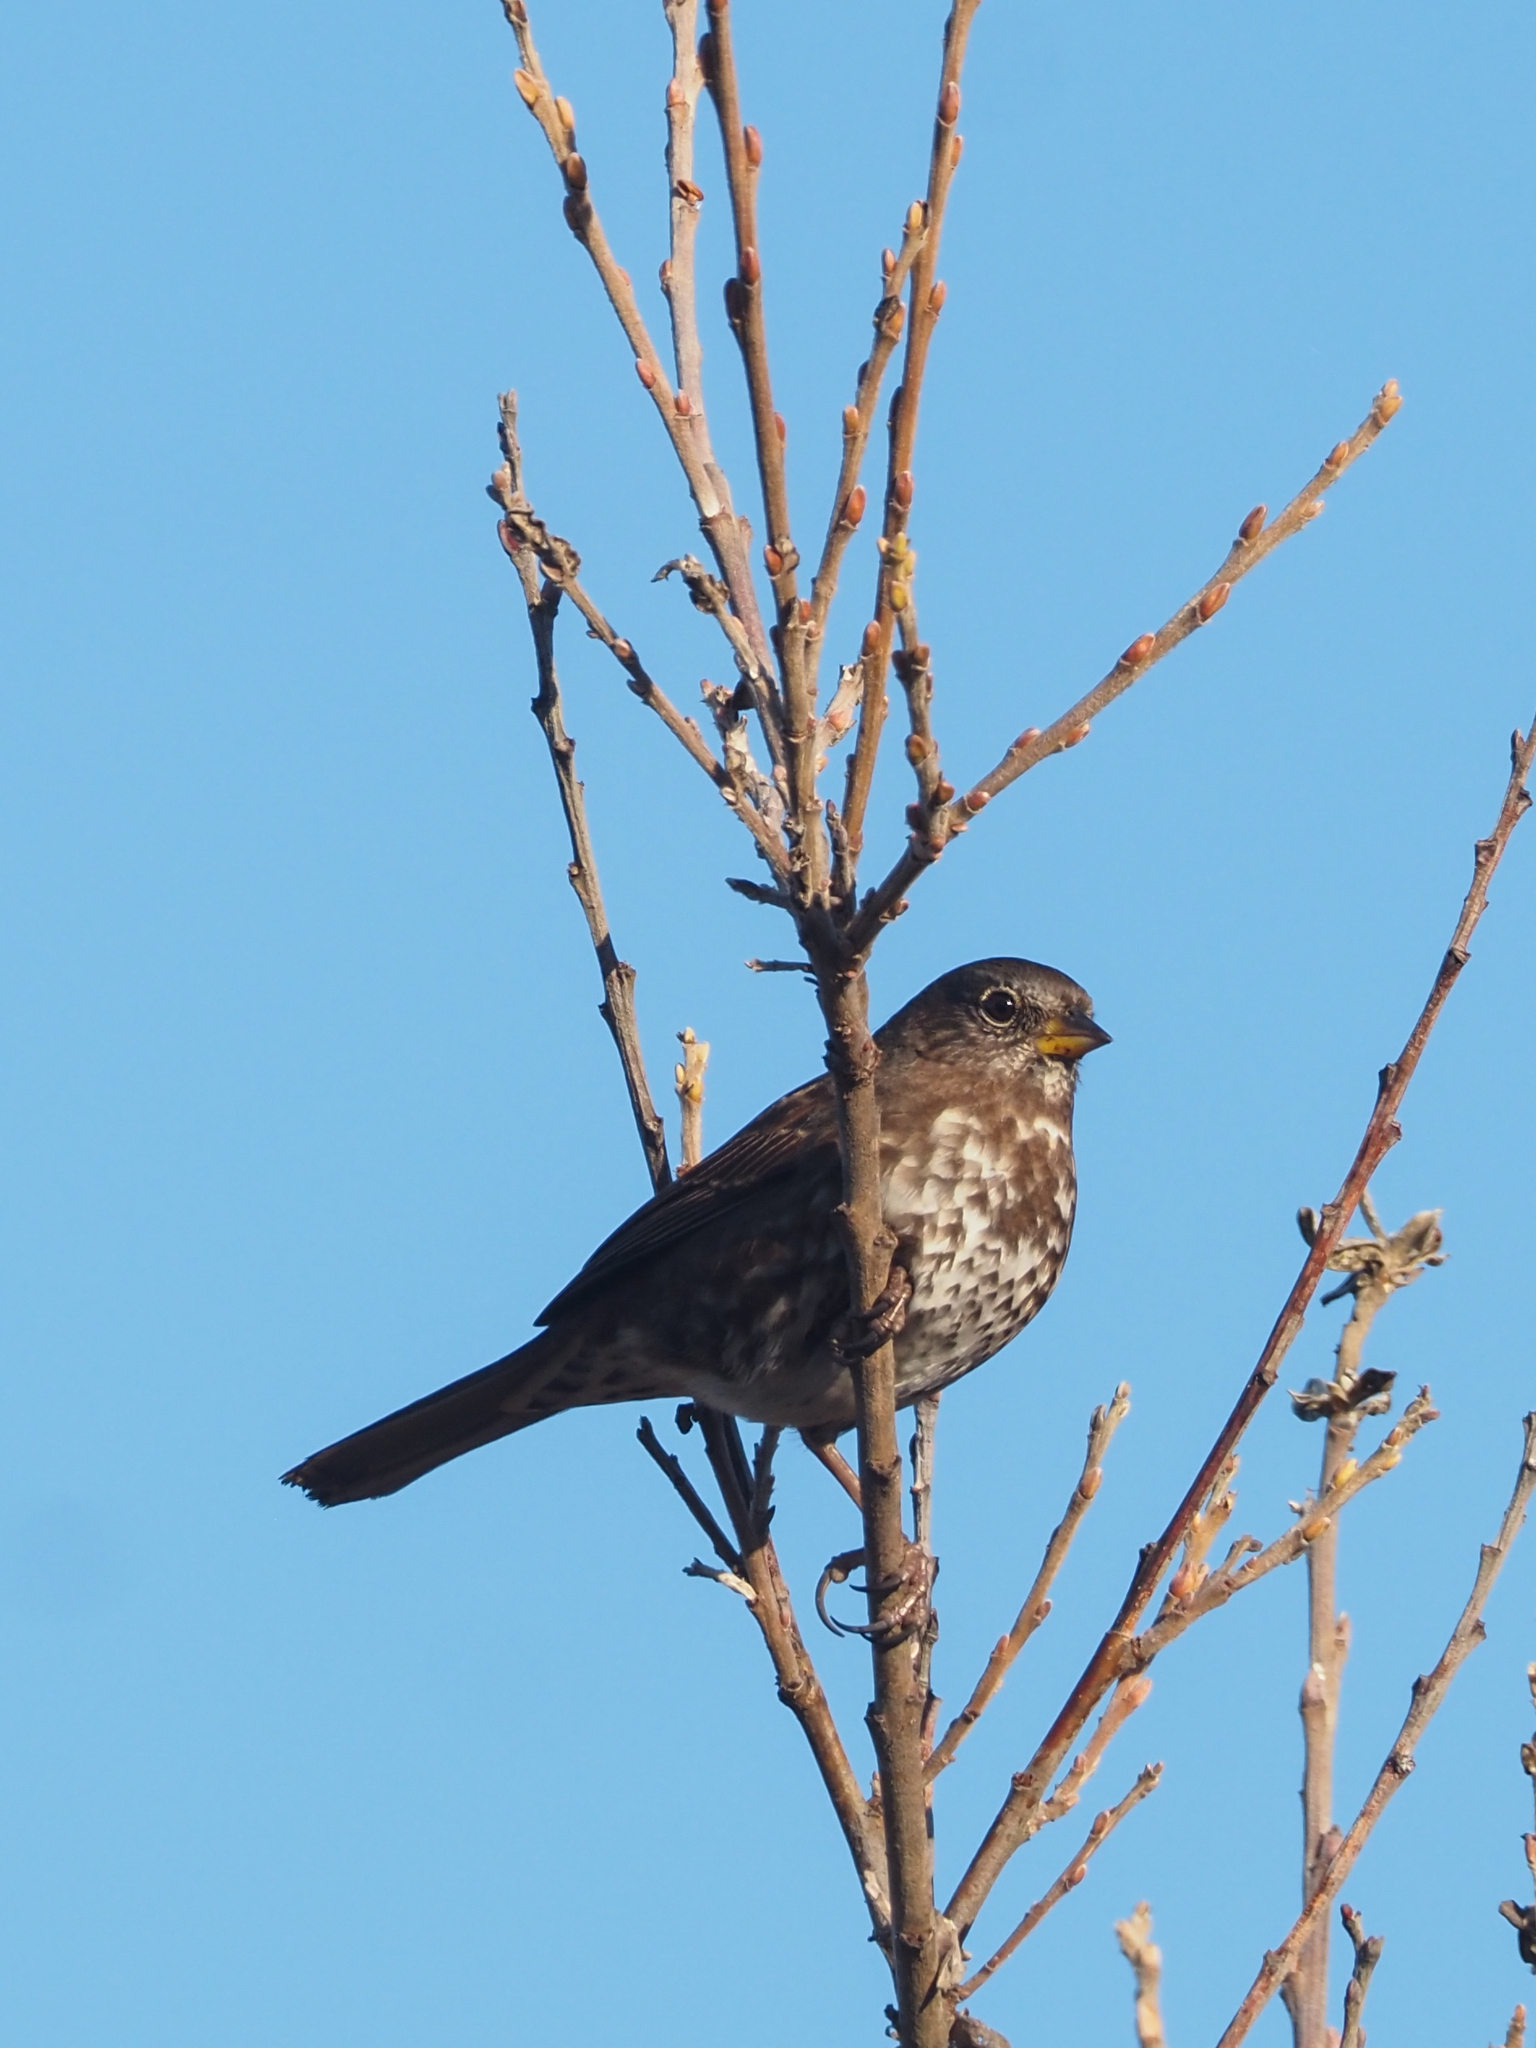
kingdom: Animalia
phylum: Chordata
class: Aves
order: Passeriformes
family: Passerellidae
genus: Passerella
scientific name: Passerella iliaca
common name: Fox sparrow
